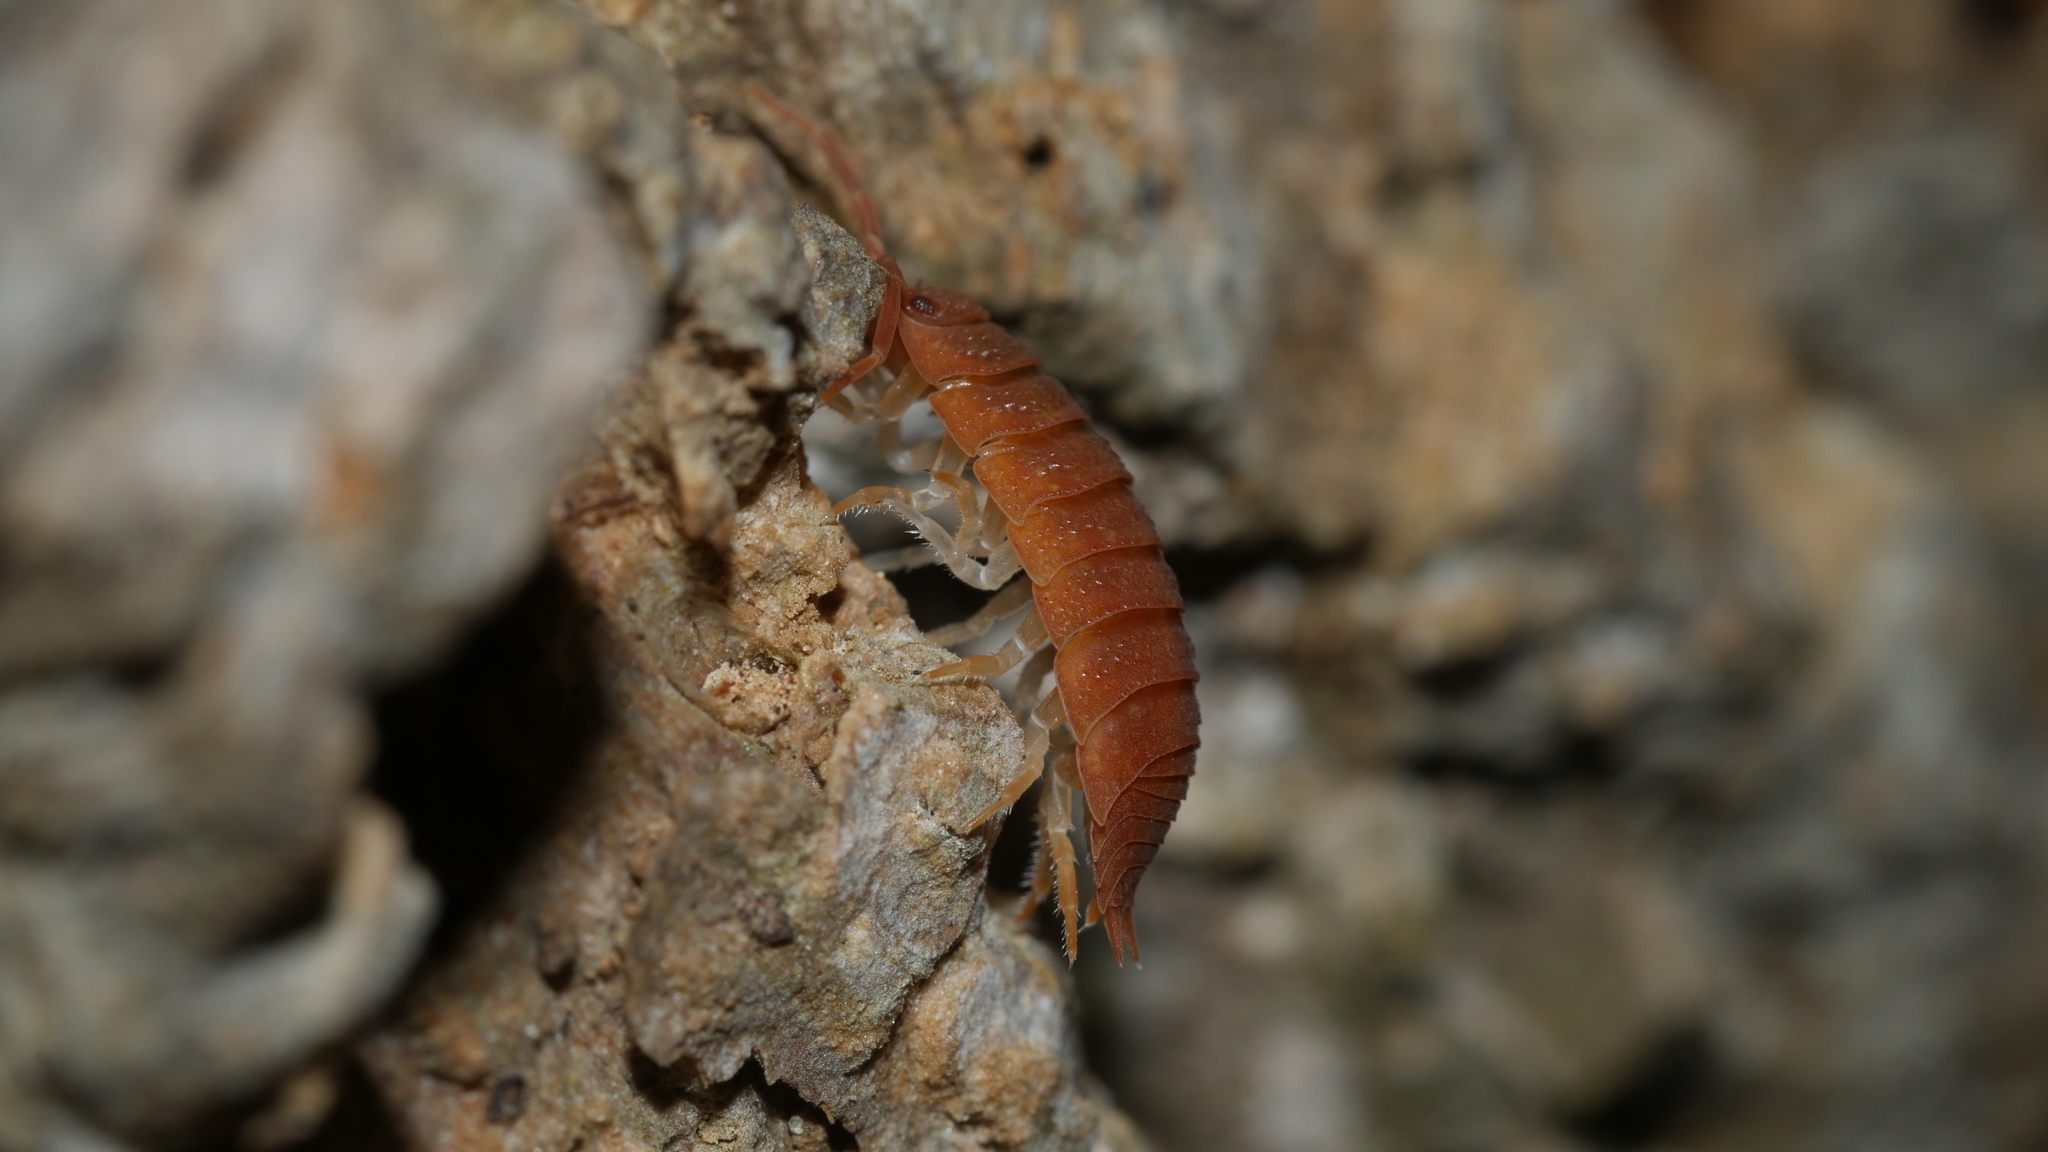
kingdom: Animalia
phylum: Arthropoda
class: Malacostraca
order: Isopoda
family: Porcellionidae
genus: Porcellio
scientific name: Porcellio scaber
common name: Common rough woodlouse
